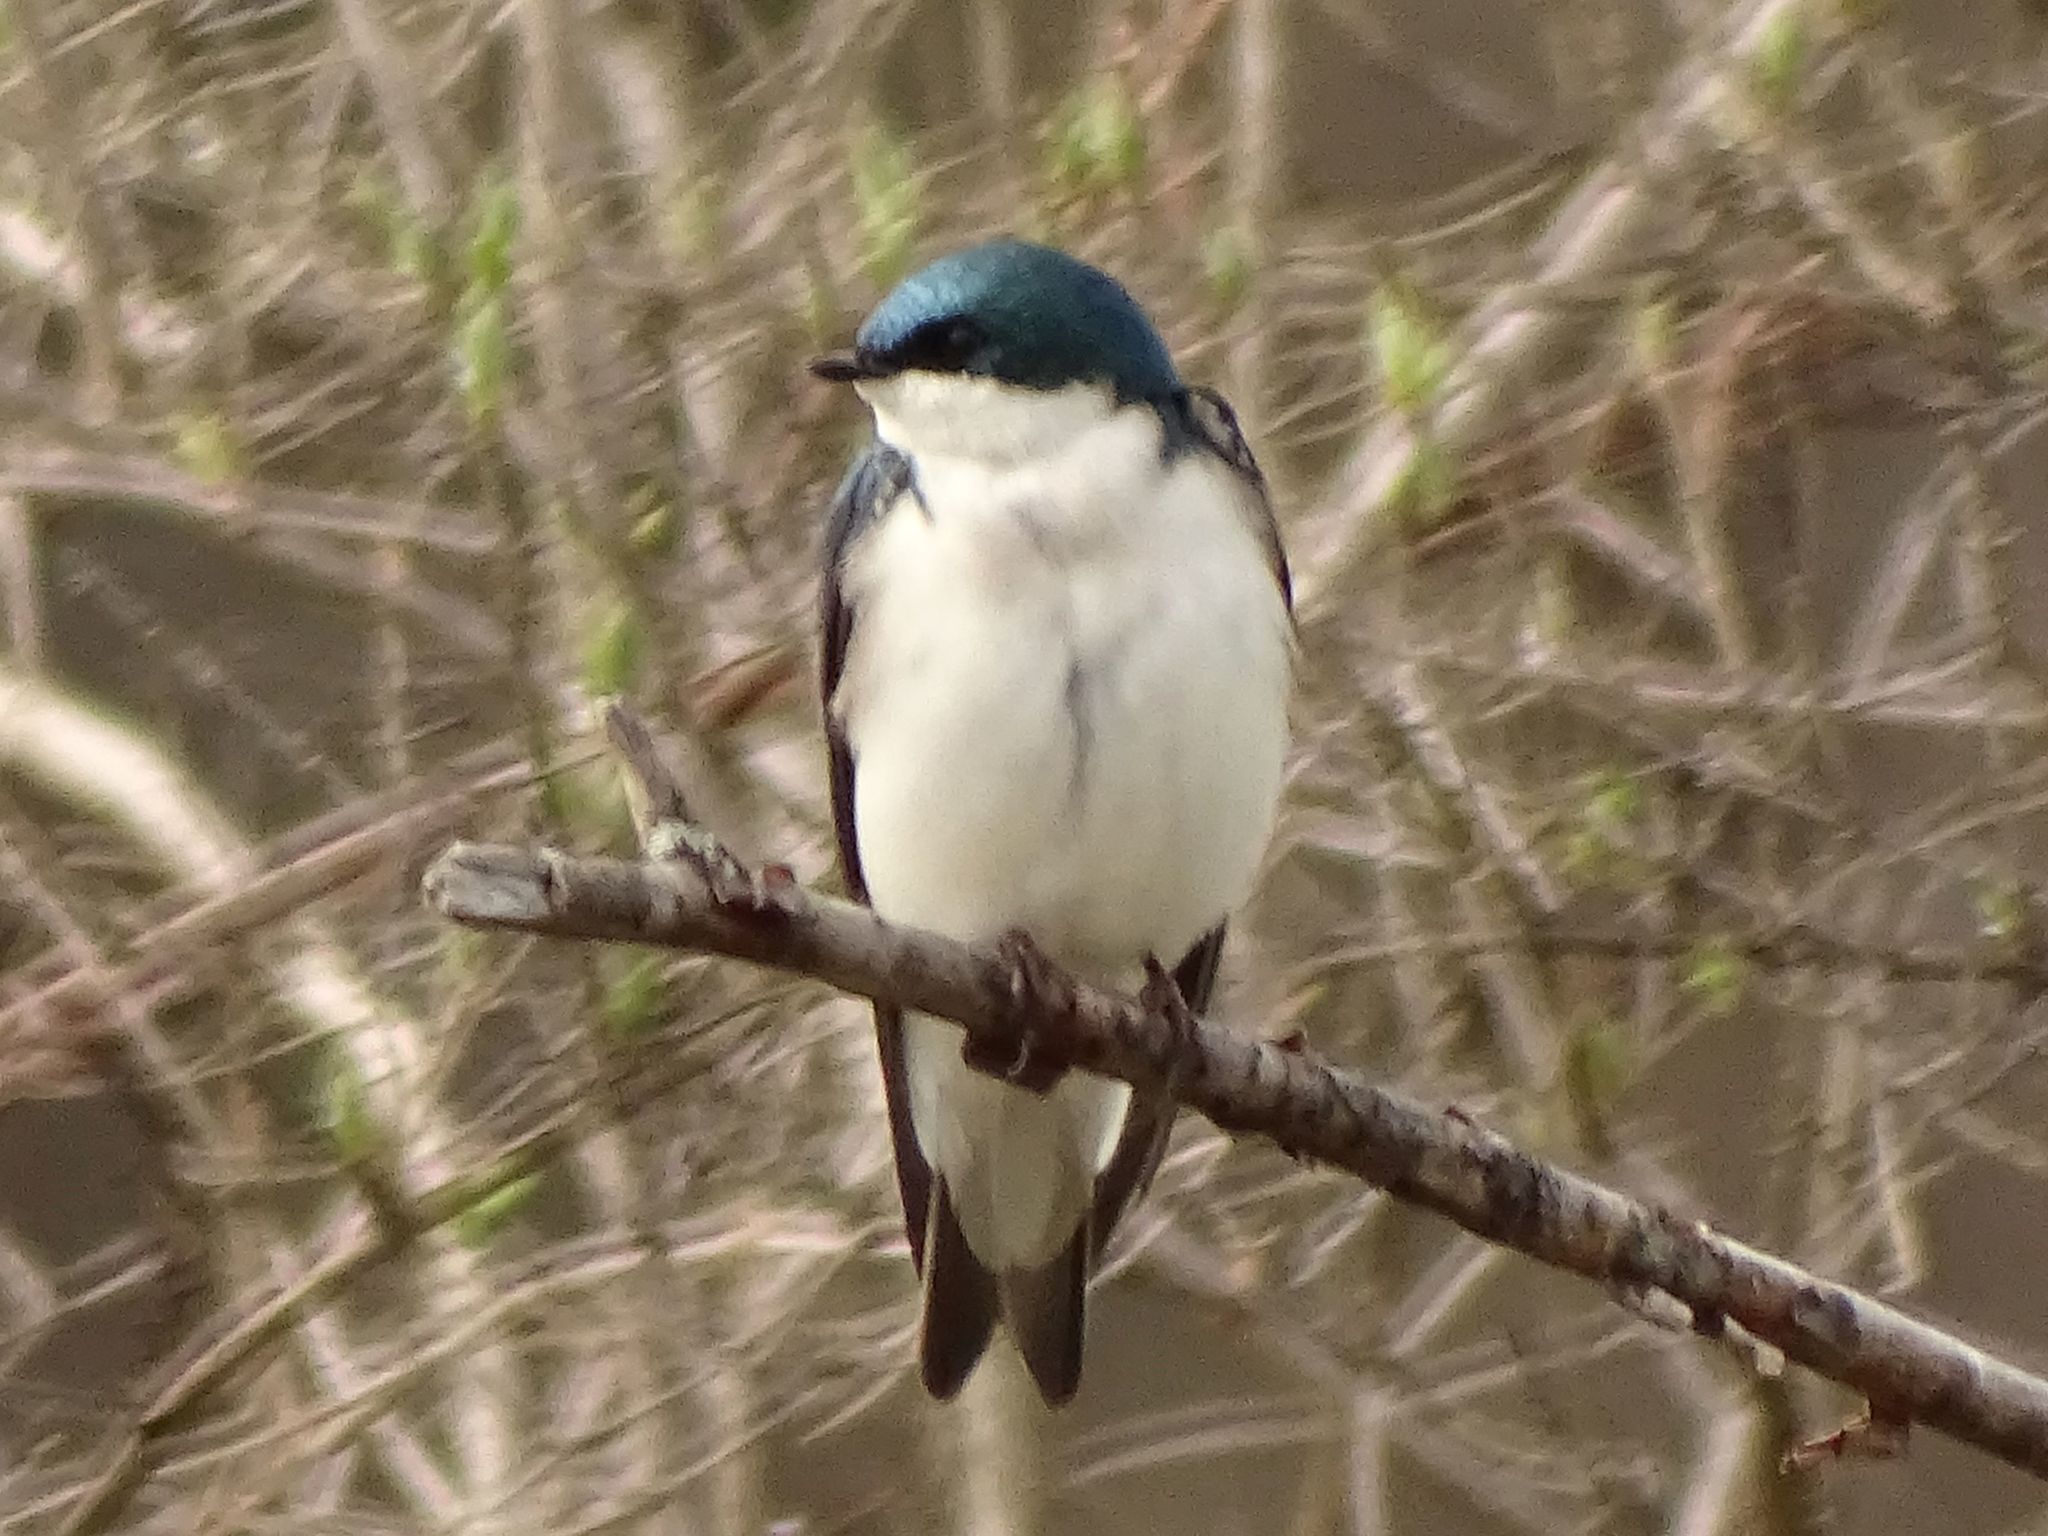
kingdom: Animalia
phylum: Chordata
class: Aves
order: Passeriformes
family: Hirundinidae
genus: Tachycineta
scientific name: Tachycineta bicolor
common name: Tree swallow
